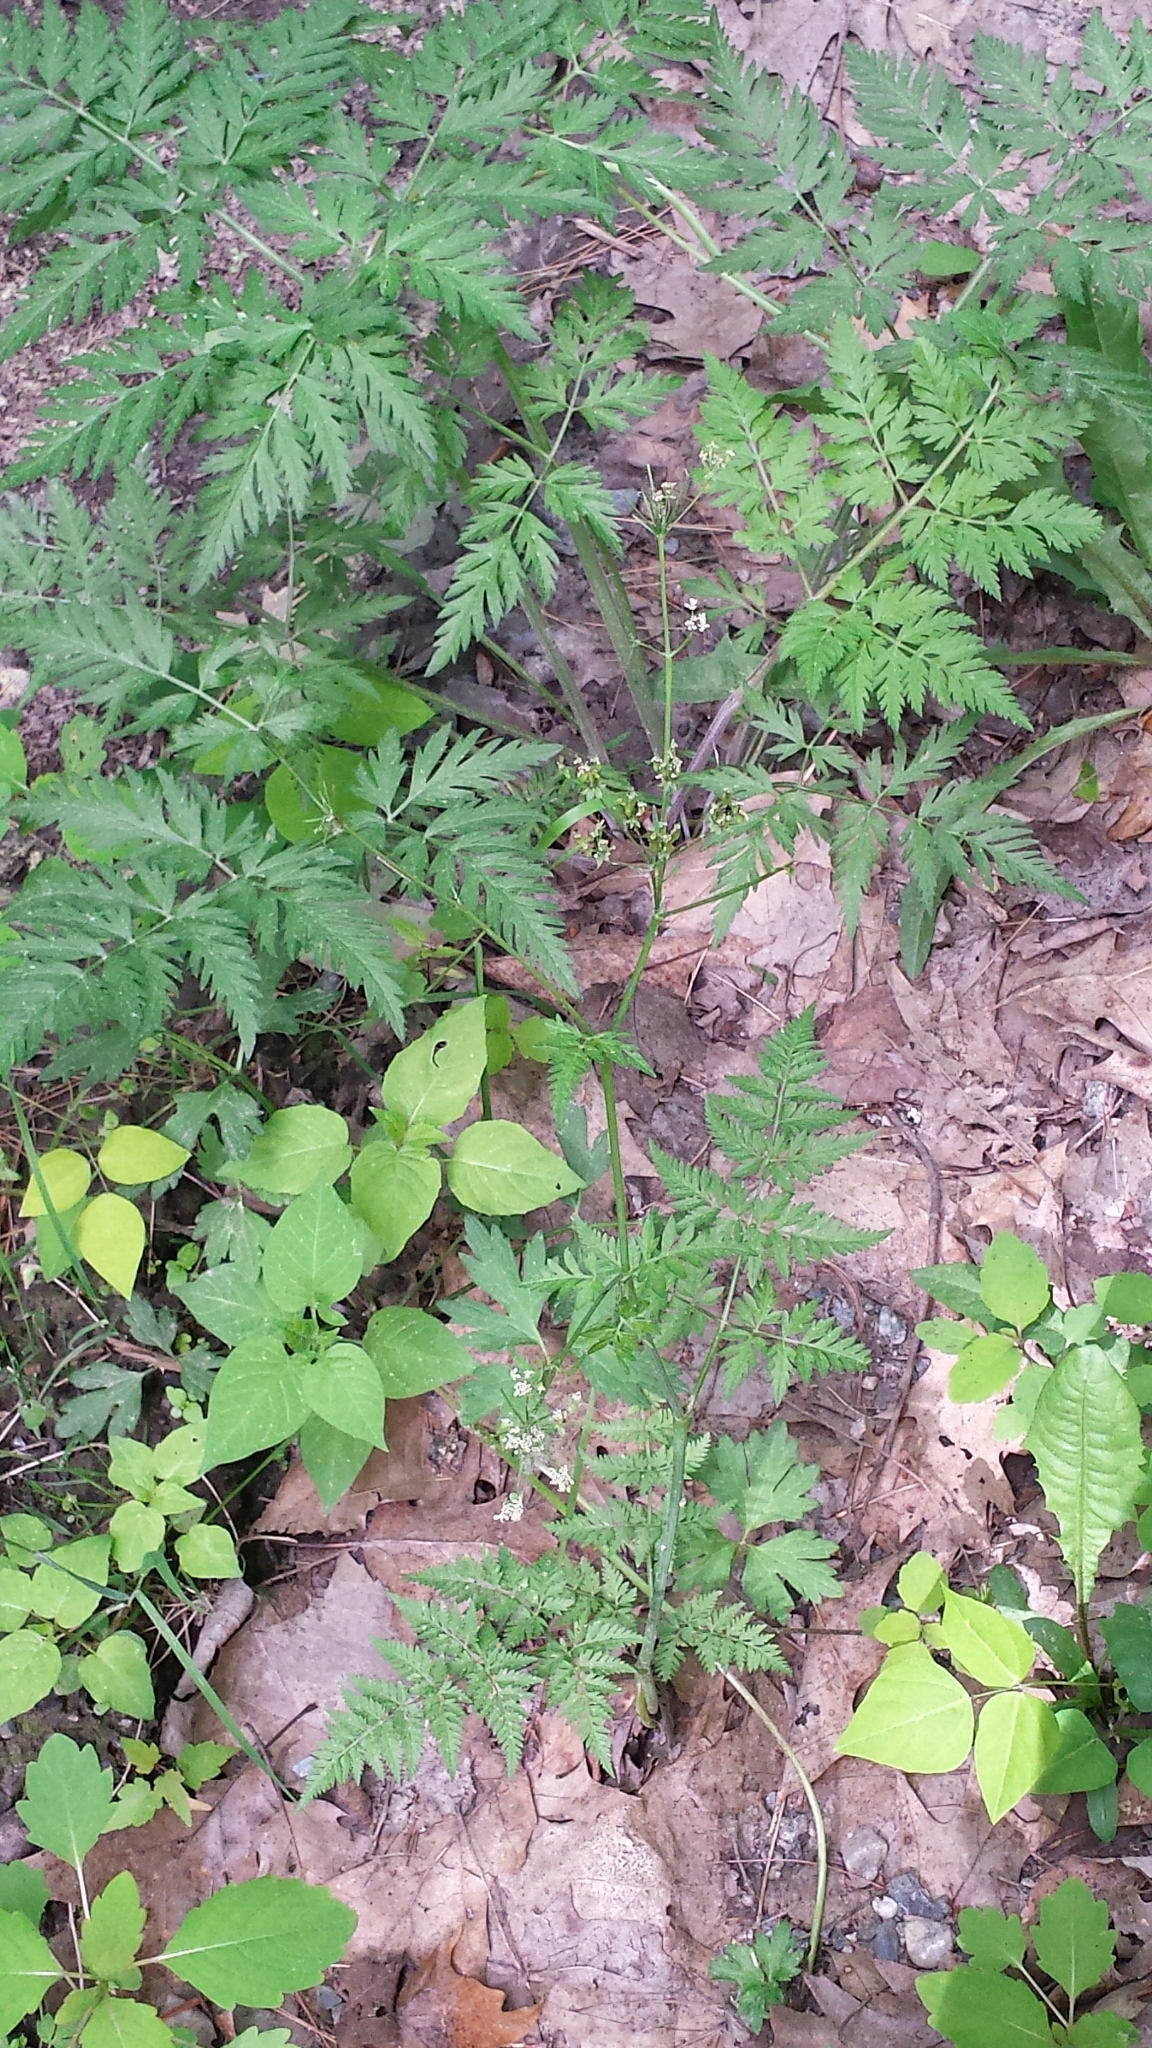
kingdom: Plantae
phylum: Tracheophyta
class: Magnoliopsida
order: Apiales
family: Apiaceae
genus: Anthriscus
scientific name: Anthriscus sylvestris
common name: Cow parsley
